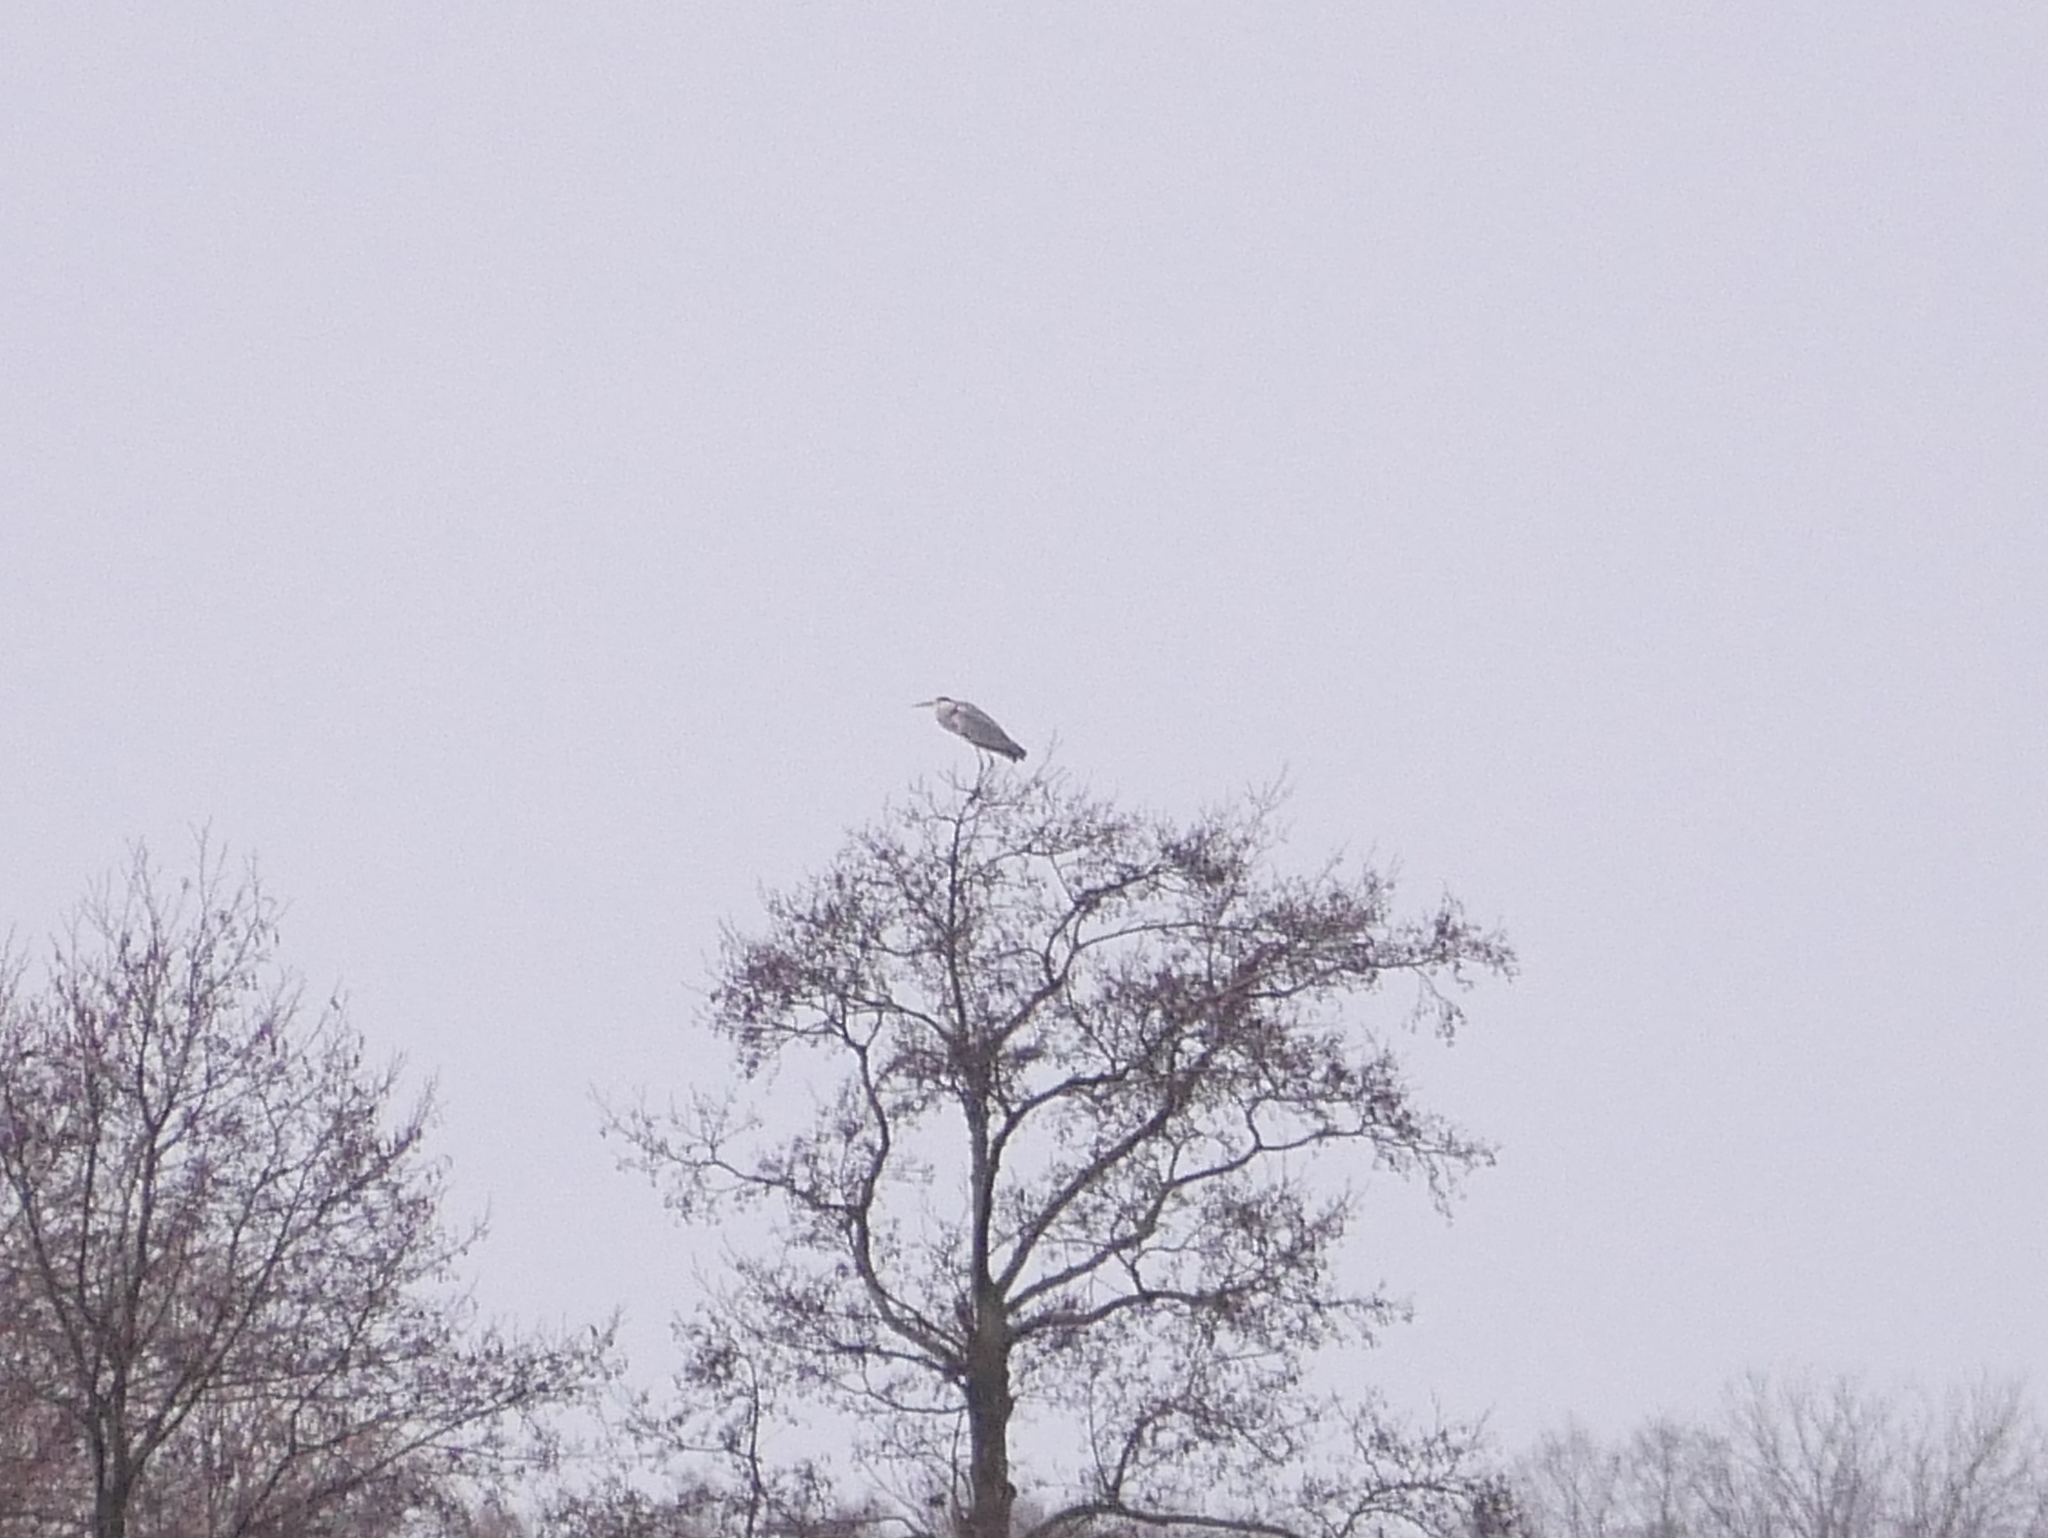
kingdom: Animalia
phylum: Chordata
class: Aves
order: Pelecaniformes
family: Ardeidae
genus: Ardea
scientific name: Ardea cinerea
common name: Grey heron
